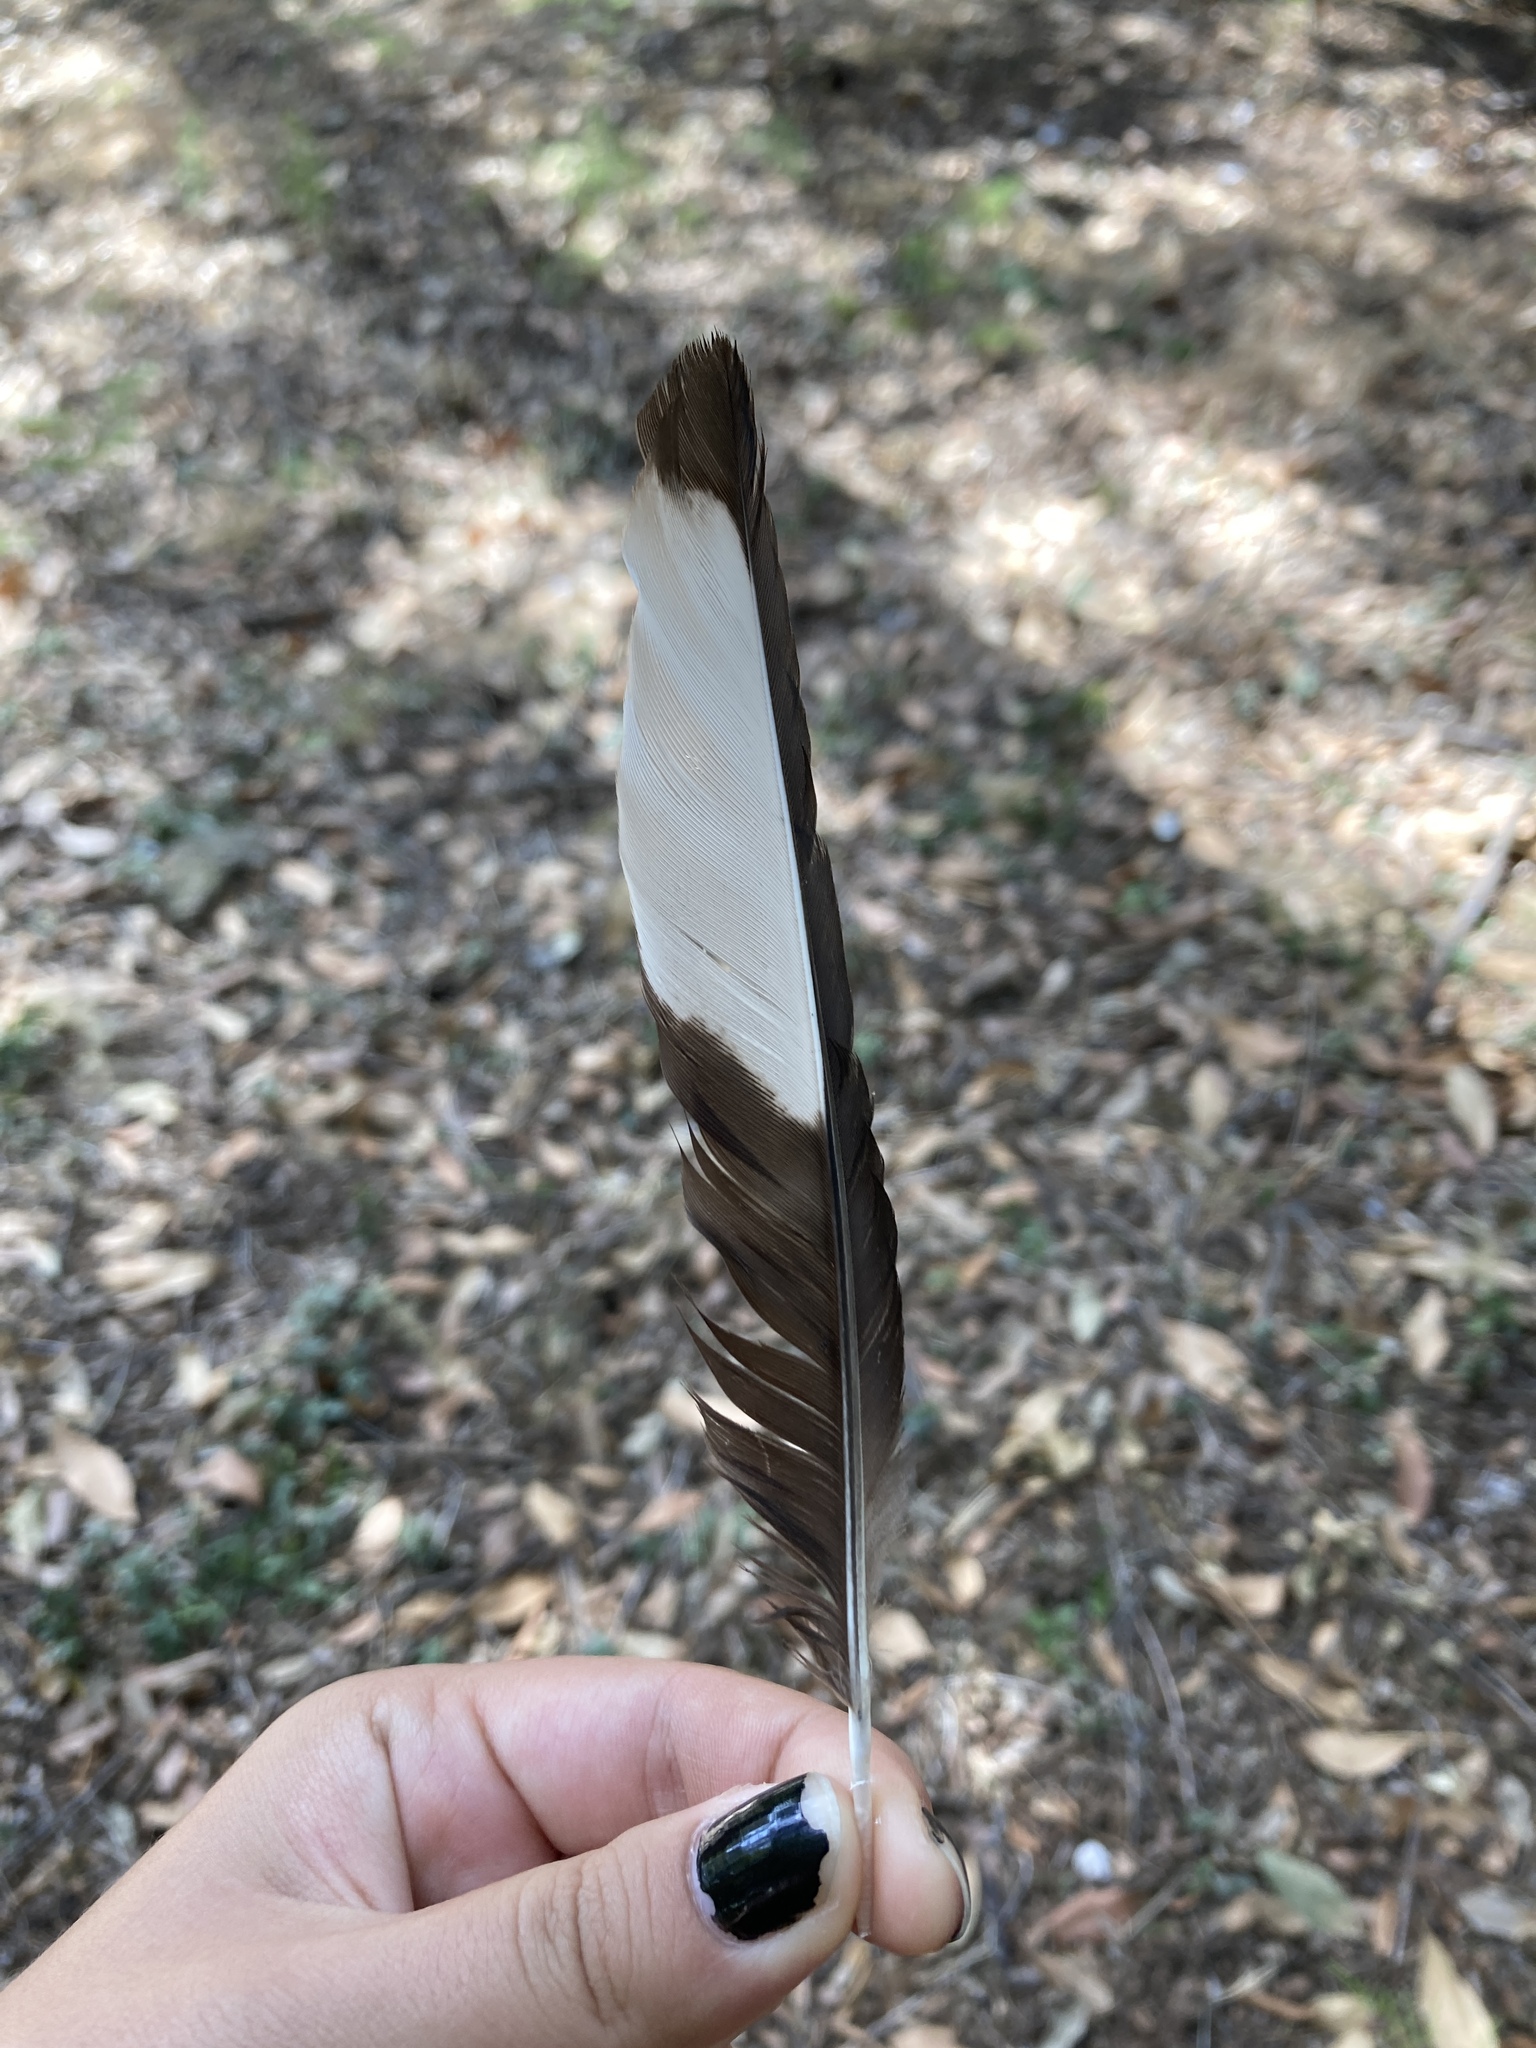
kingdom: Animalia
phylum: Chordata
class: Aves
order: Passeriformes
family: Corvidae
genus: Pica
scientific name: Pica pica
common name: Eurasian magpie
